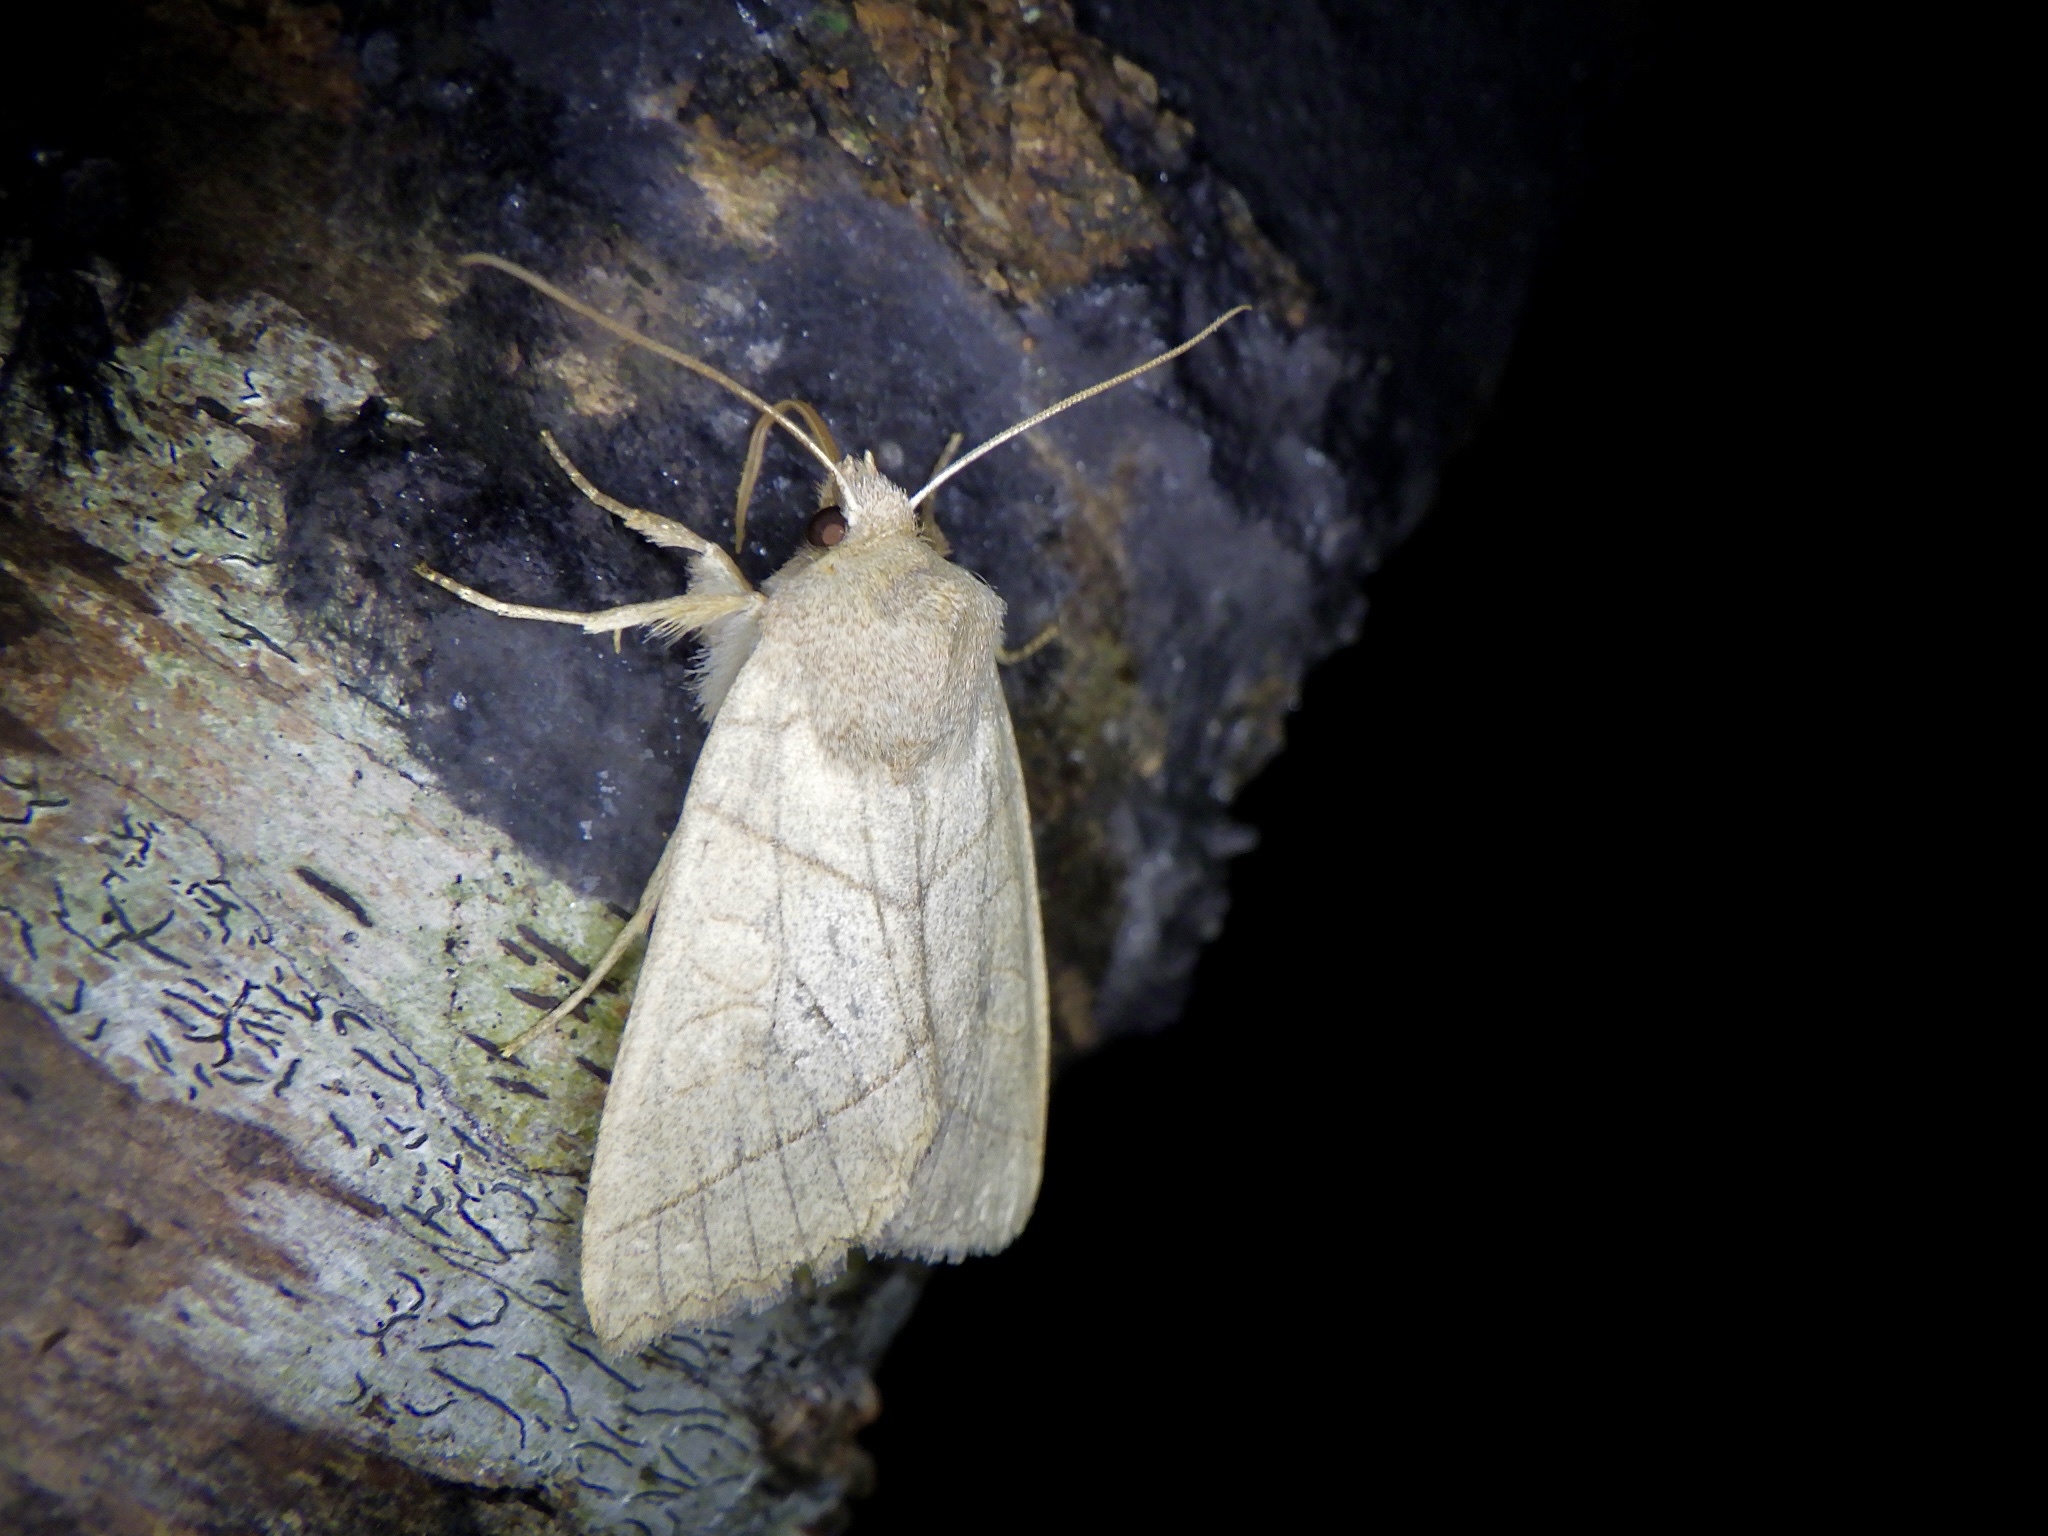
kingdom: Animalia
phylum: Arthropoda
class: Insecta
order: Lepidoptera
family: Noctuidae
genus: Telorta
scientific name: Telorta divergens
